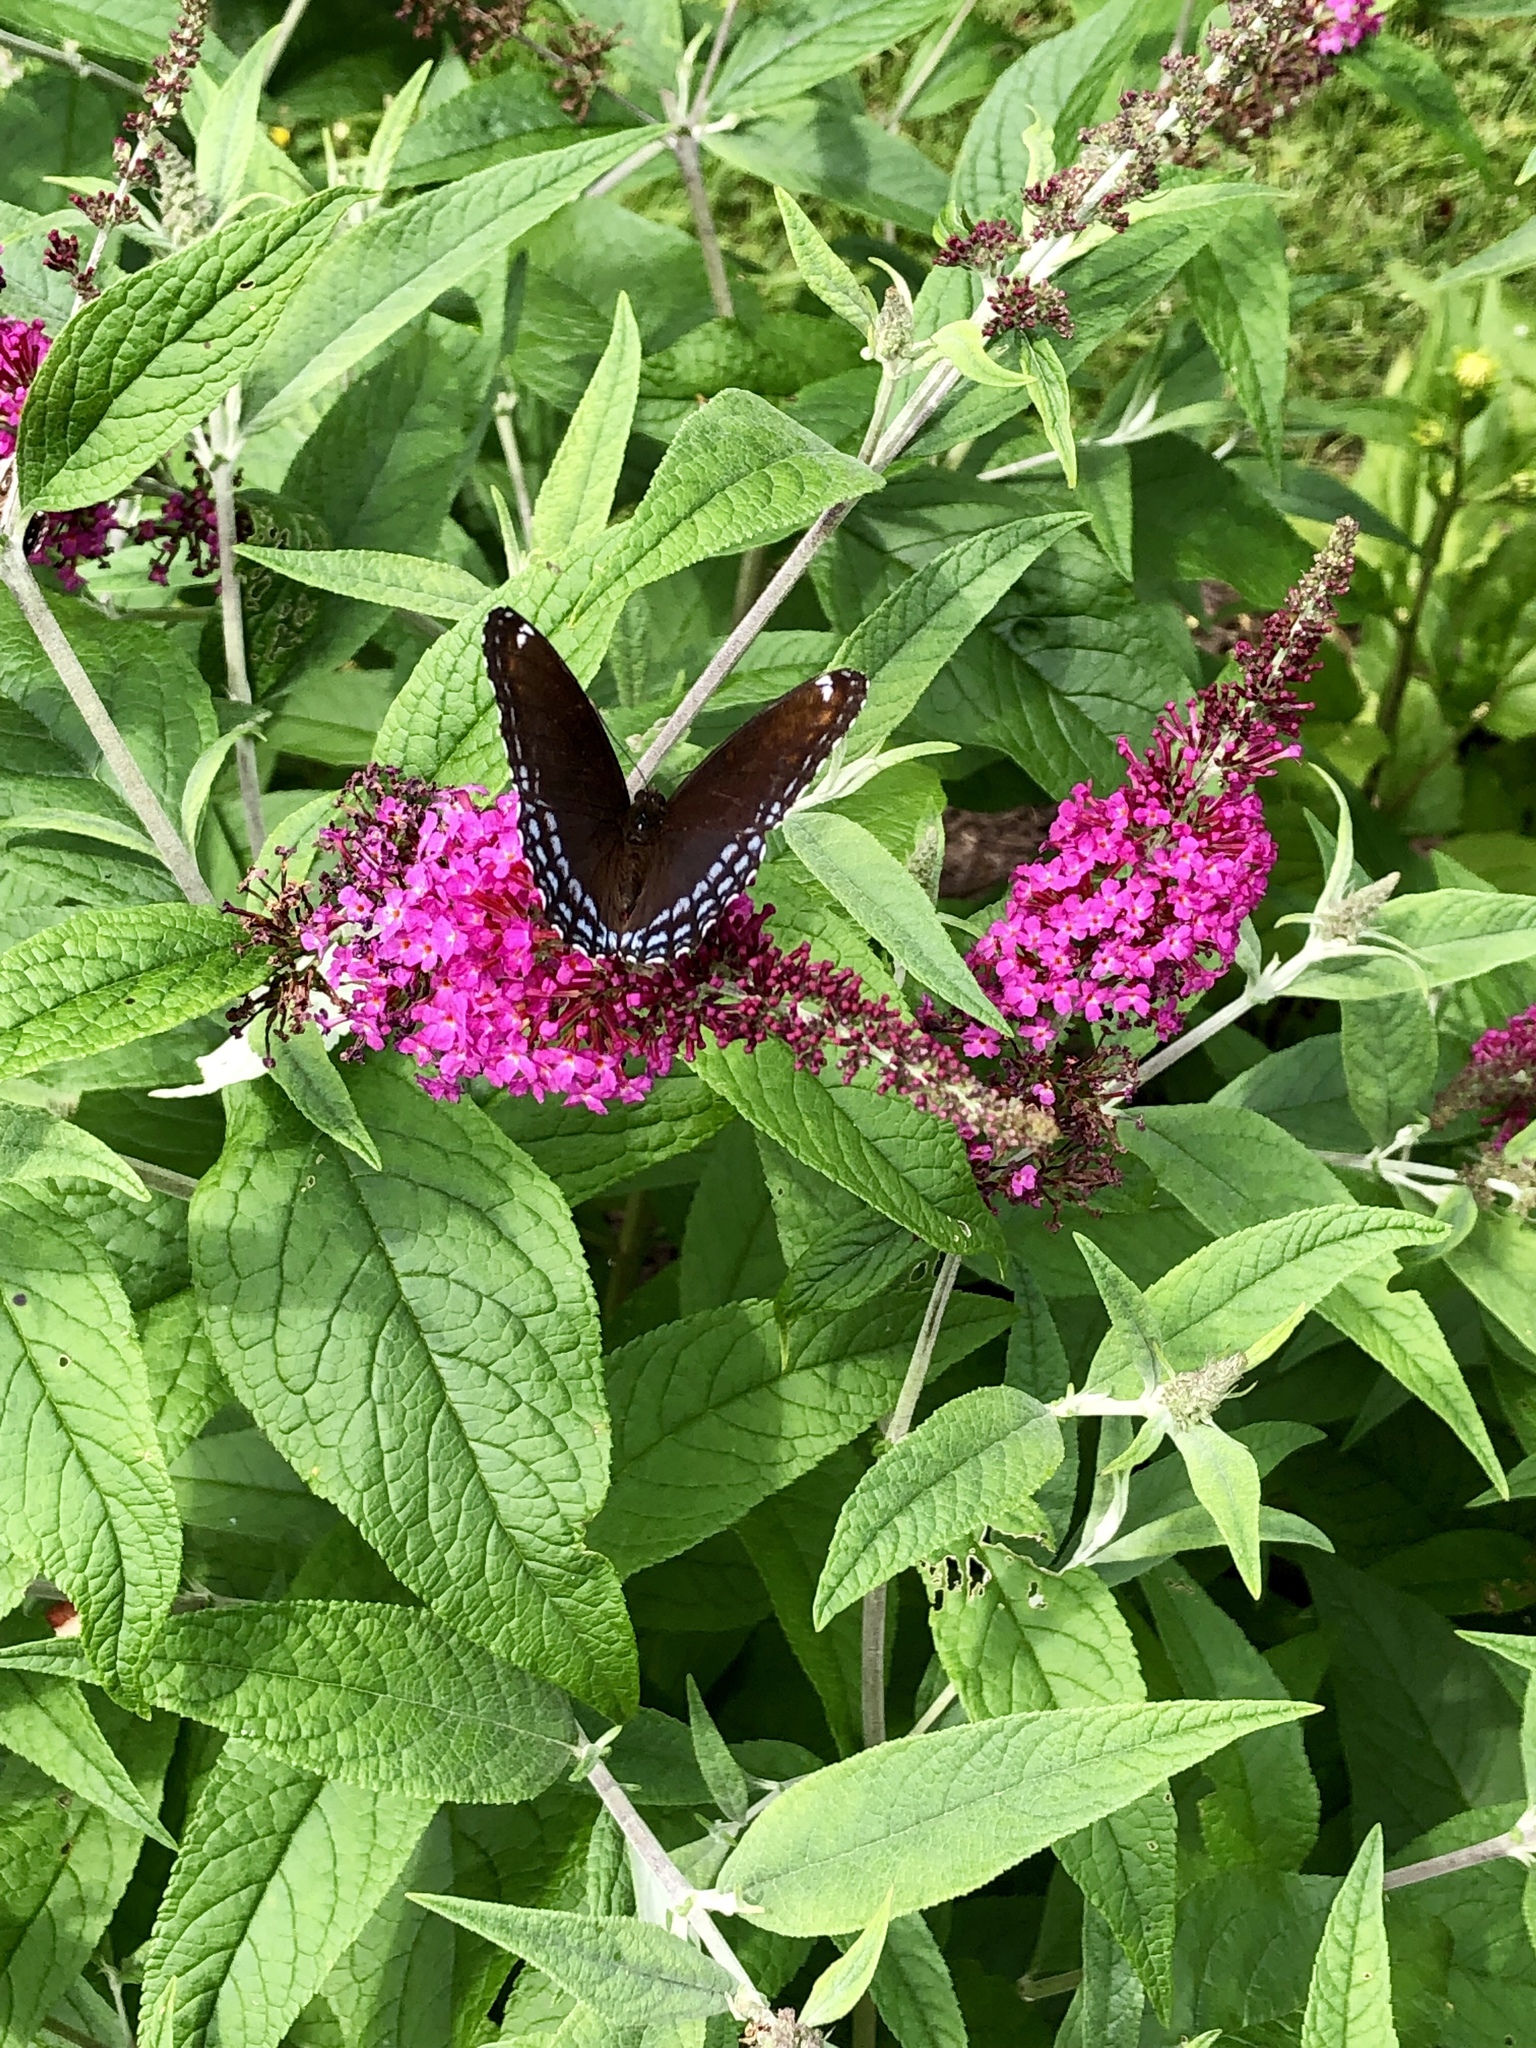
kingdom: Animalia
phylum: Arthropoda
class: Insecta
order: Lepidoptera
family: Nymphalidae
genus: Limenitis
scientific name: Limenitis astyanax
